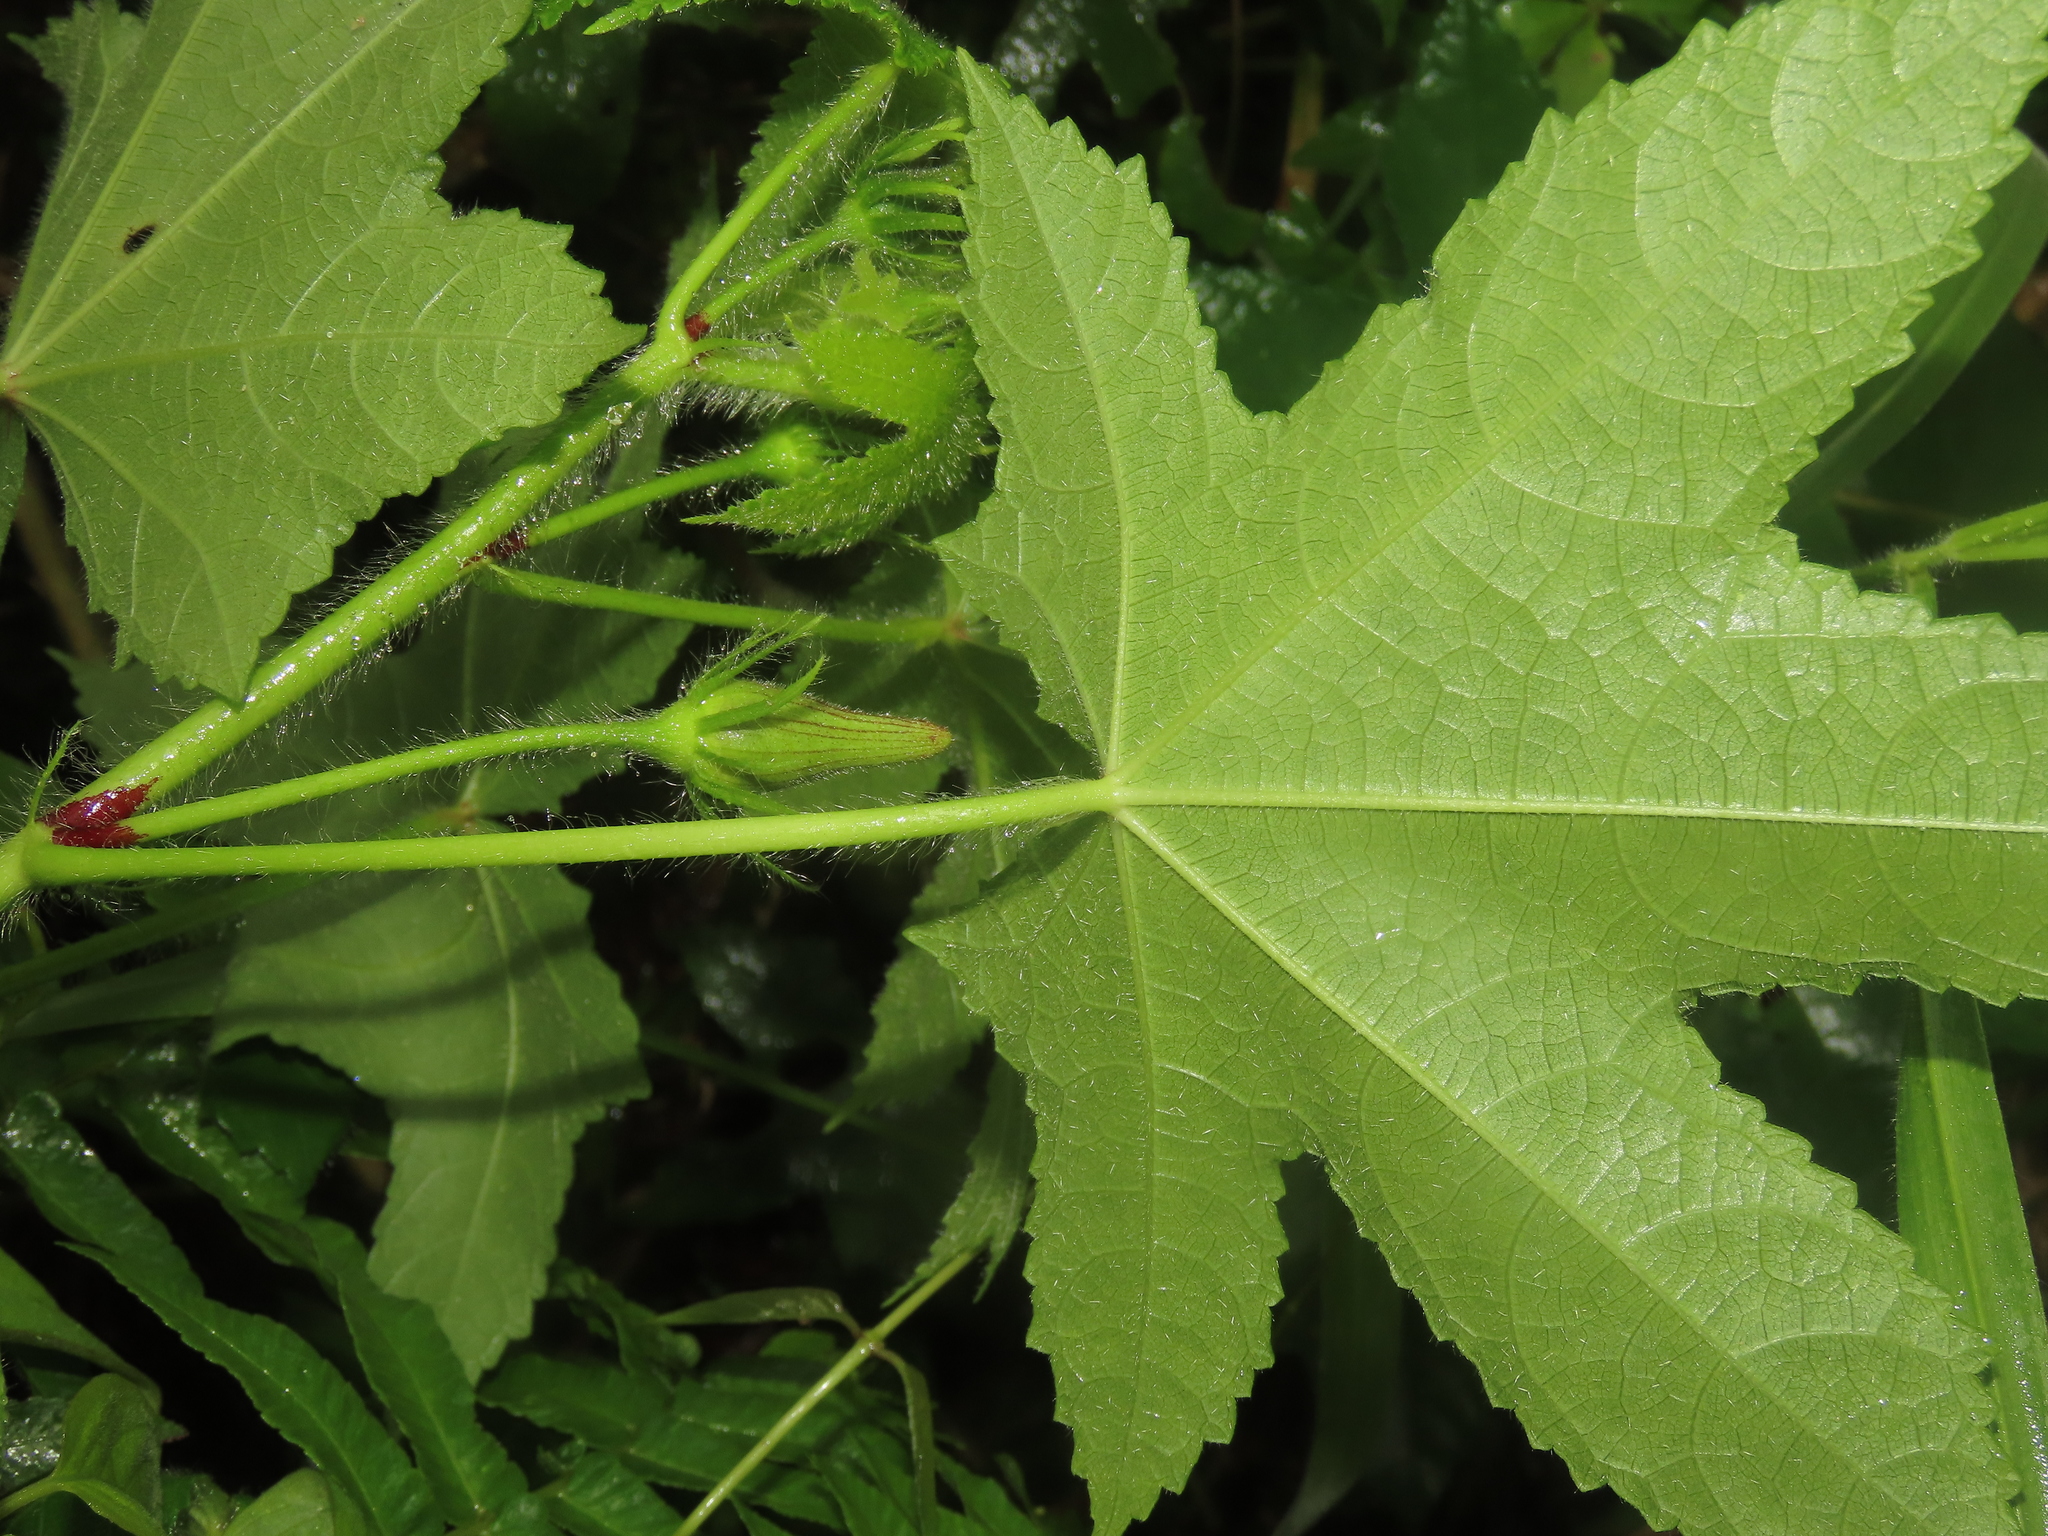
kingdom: Plantae
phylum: Tracheophyta
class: Magnoliopsida
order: Malvales
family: Malvaceae
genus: Abelmoschus
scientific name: Abelmoschus moschatus
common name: Musk okra
